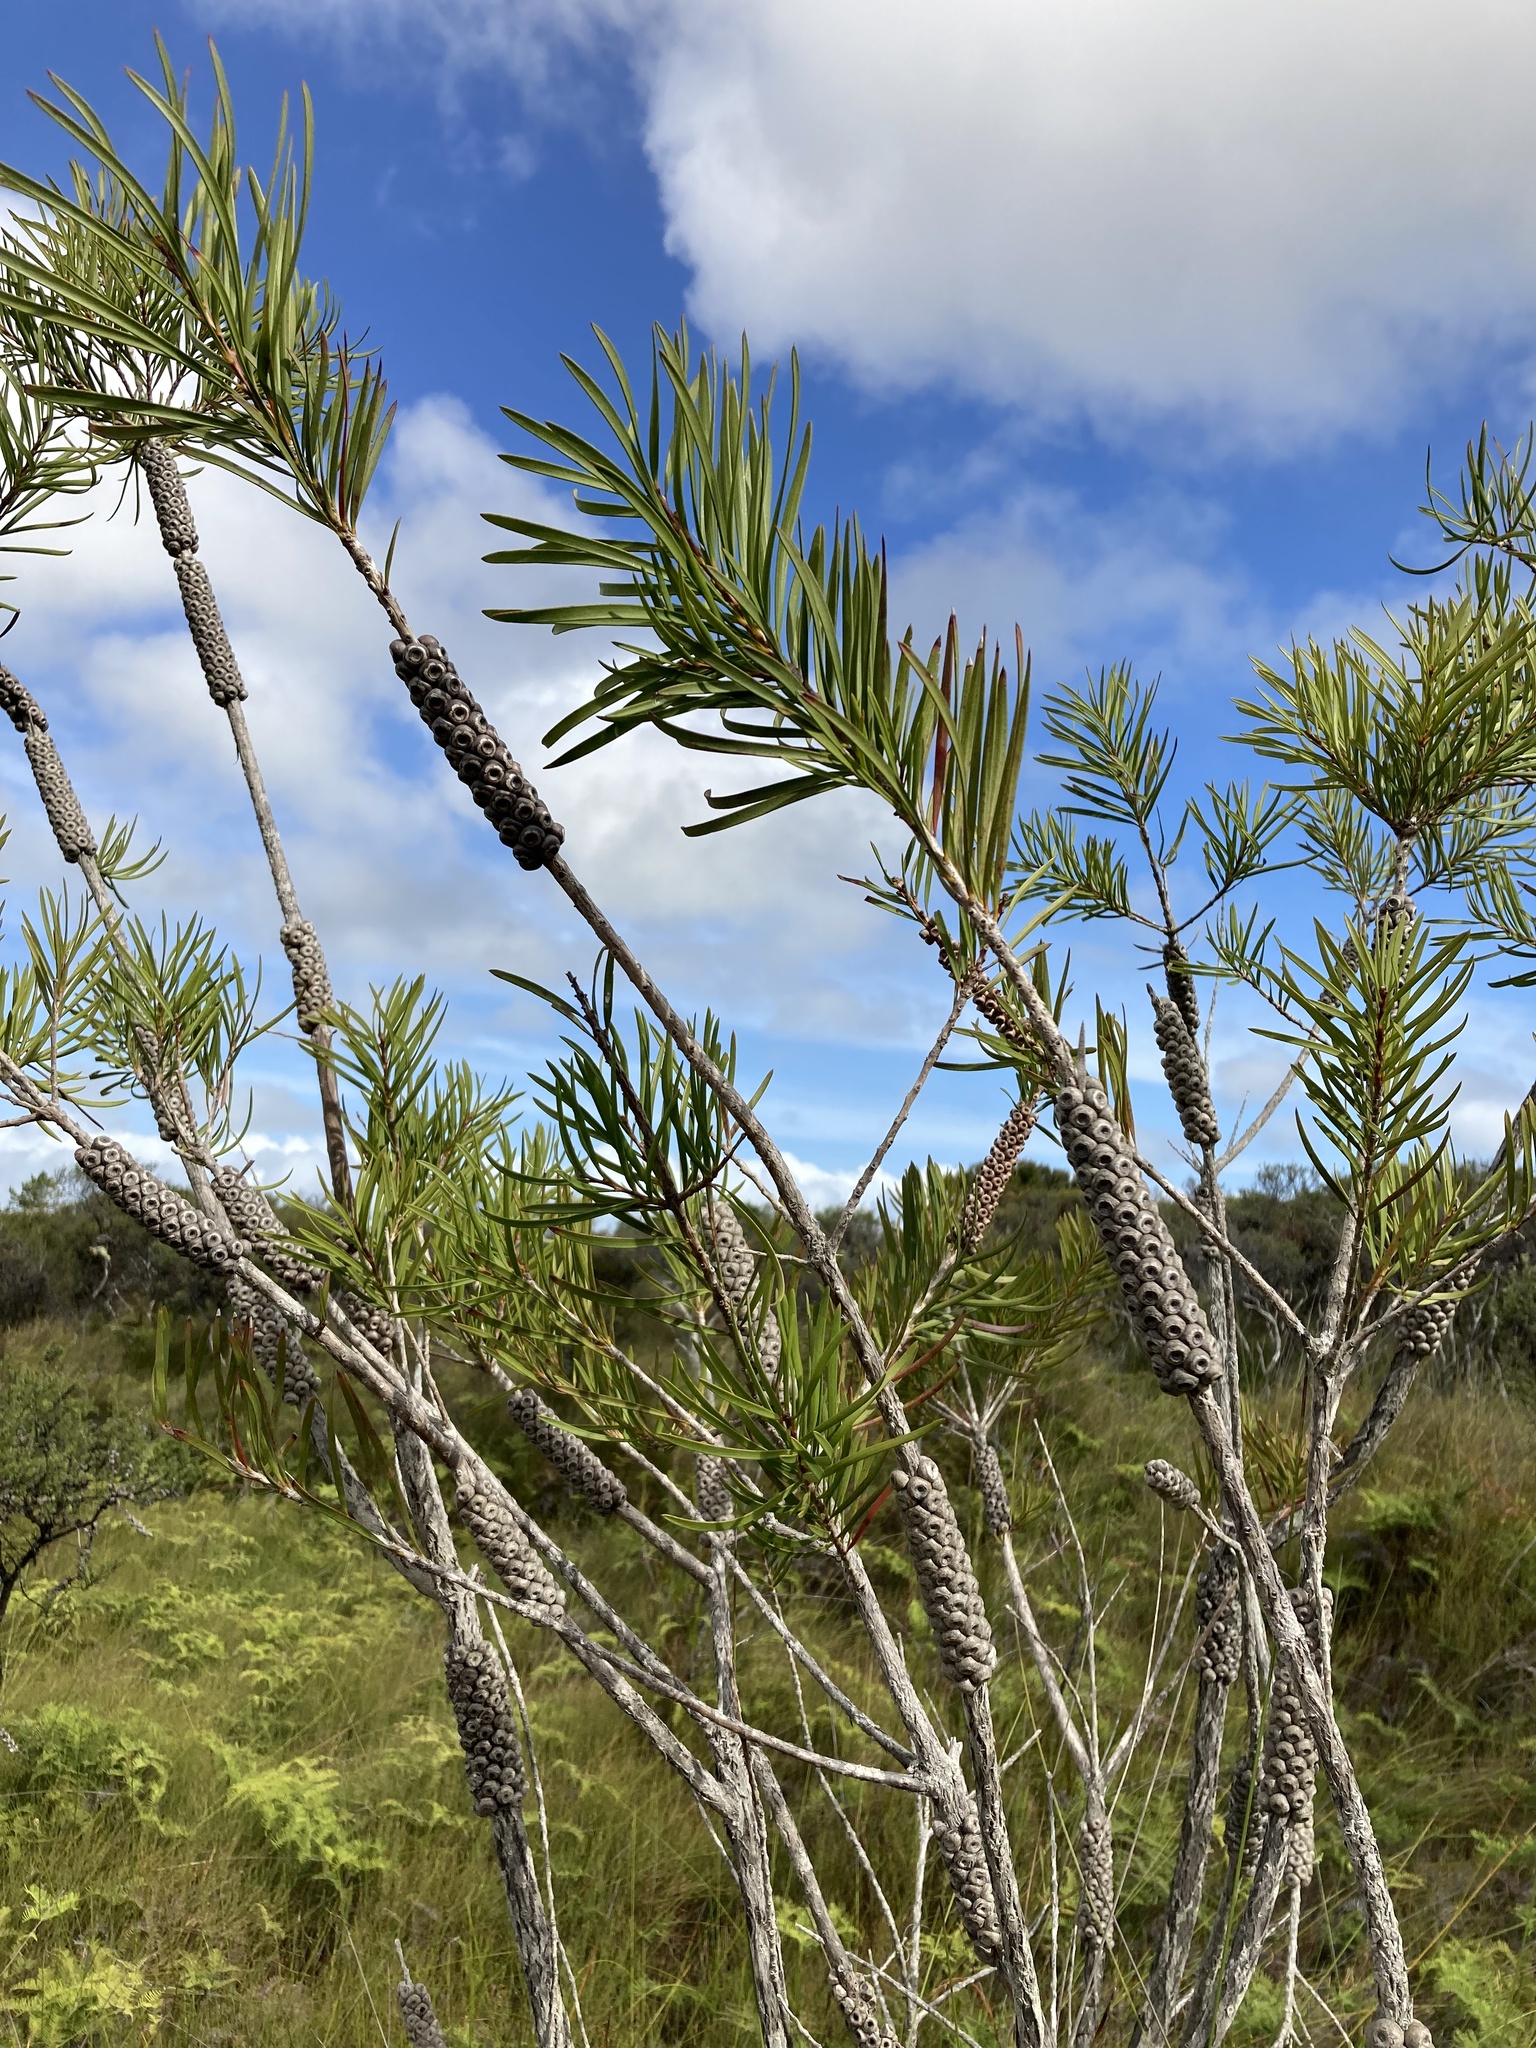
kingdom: Plantae
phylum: Tracheophyta
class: Magnoliopsida
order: Myrtales
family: Myrtaceae
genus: Callistemon
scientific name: Callistemon linearis
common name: Narrow-leaf bottlebrush
